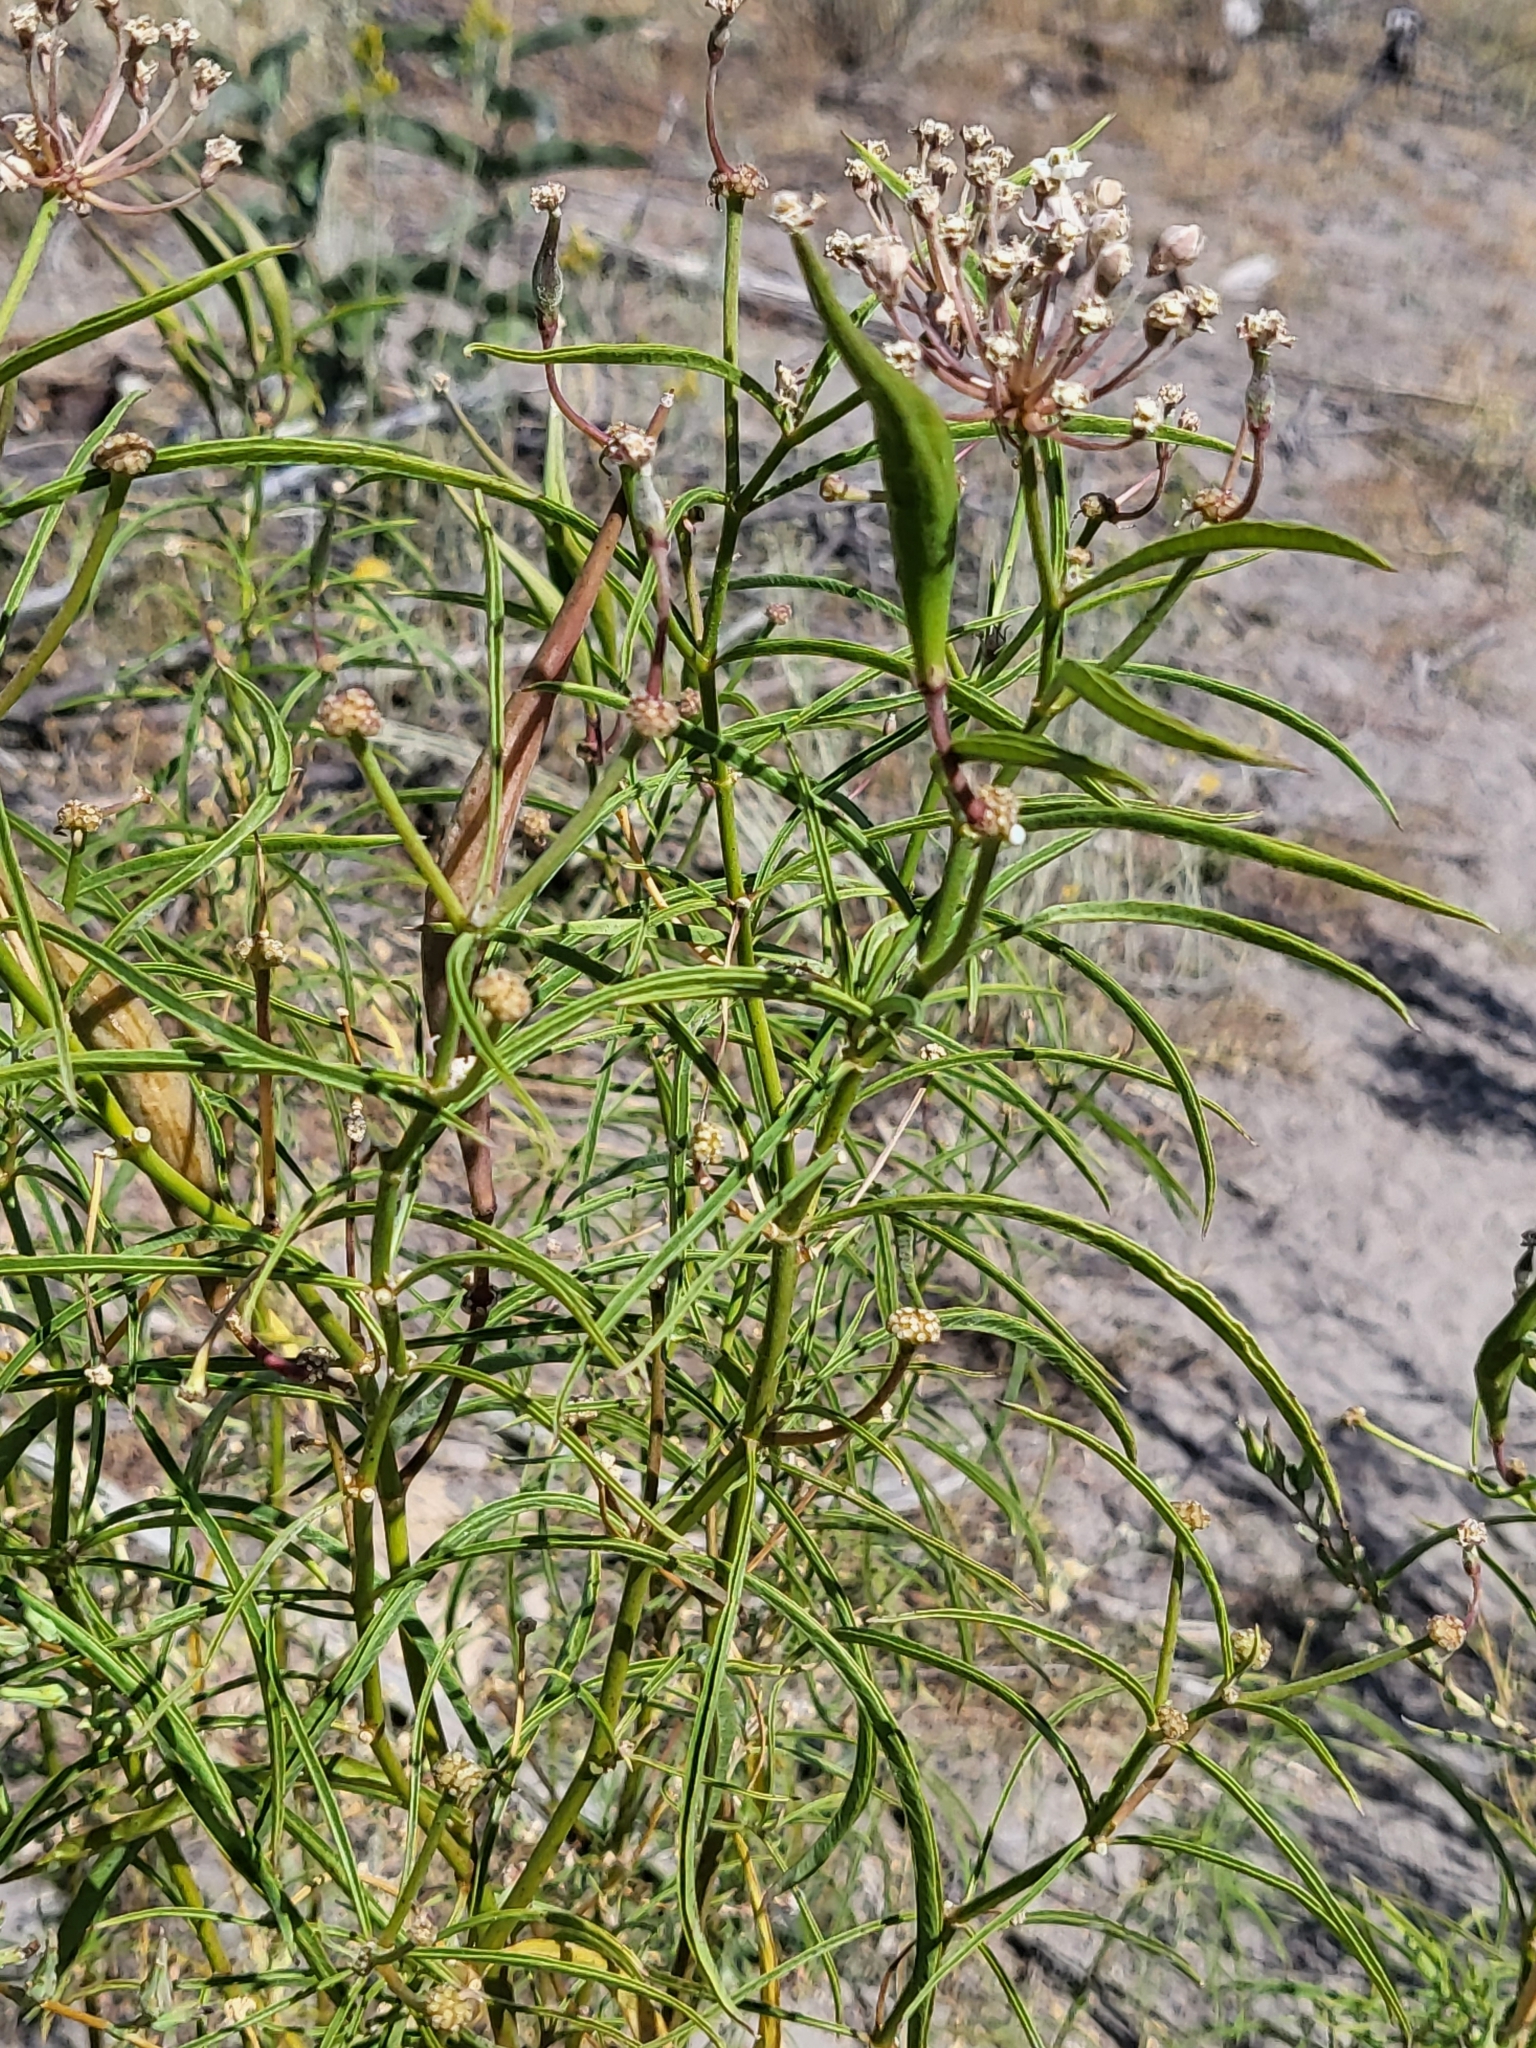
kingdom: Plantae
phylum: Tracheophyta
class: Magnoliopsida
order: Gentianales
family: Apocynaceae
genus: Asclepias
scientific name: Asclepias fascicularis
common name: Mexican milkweed
